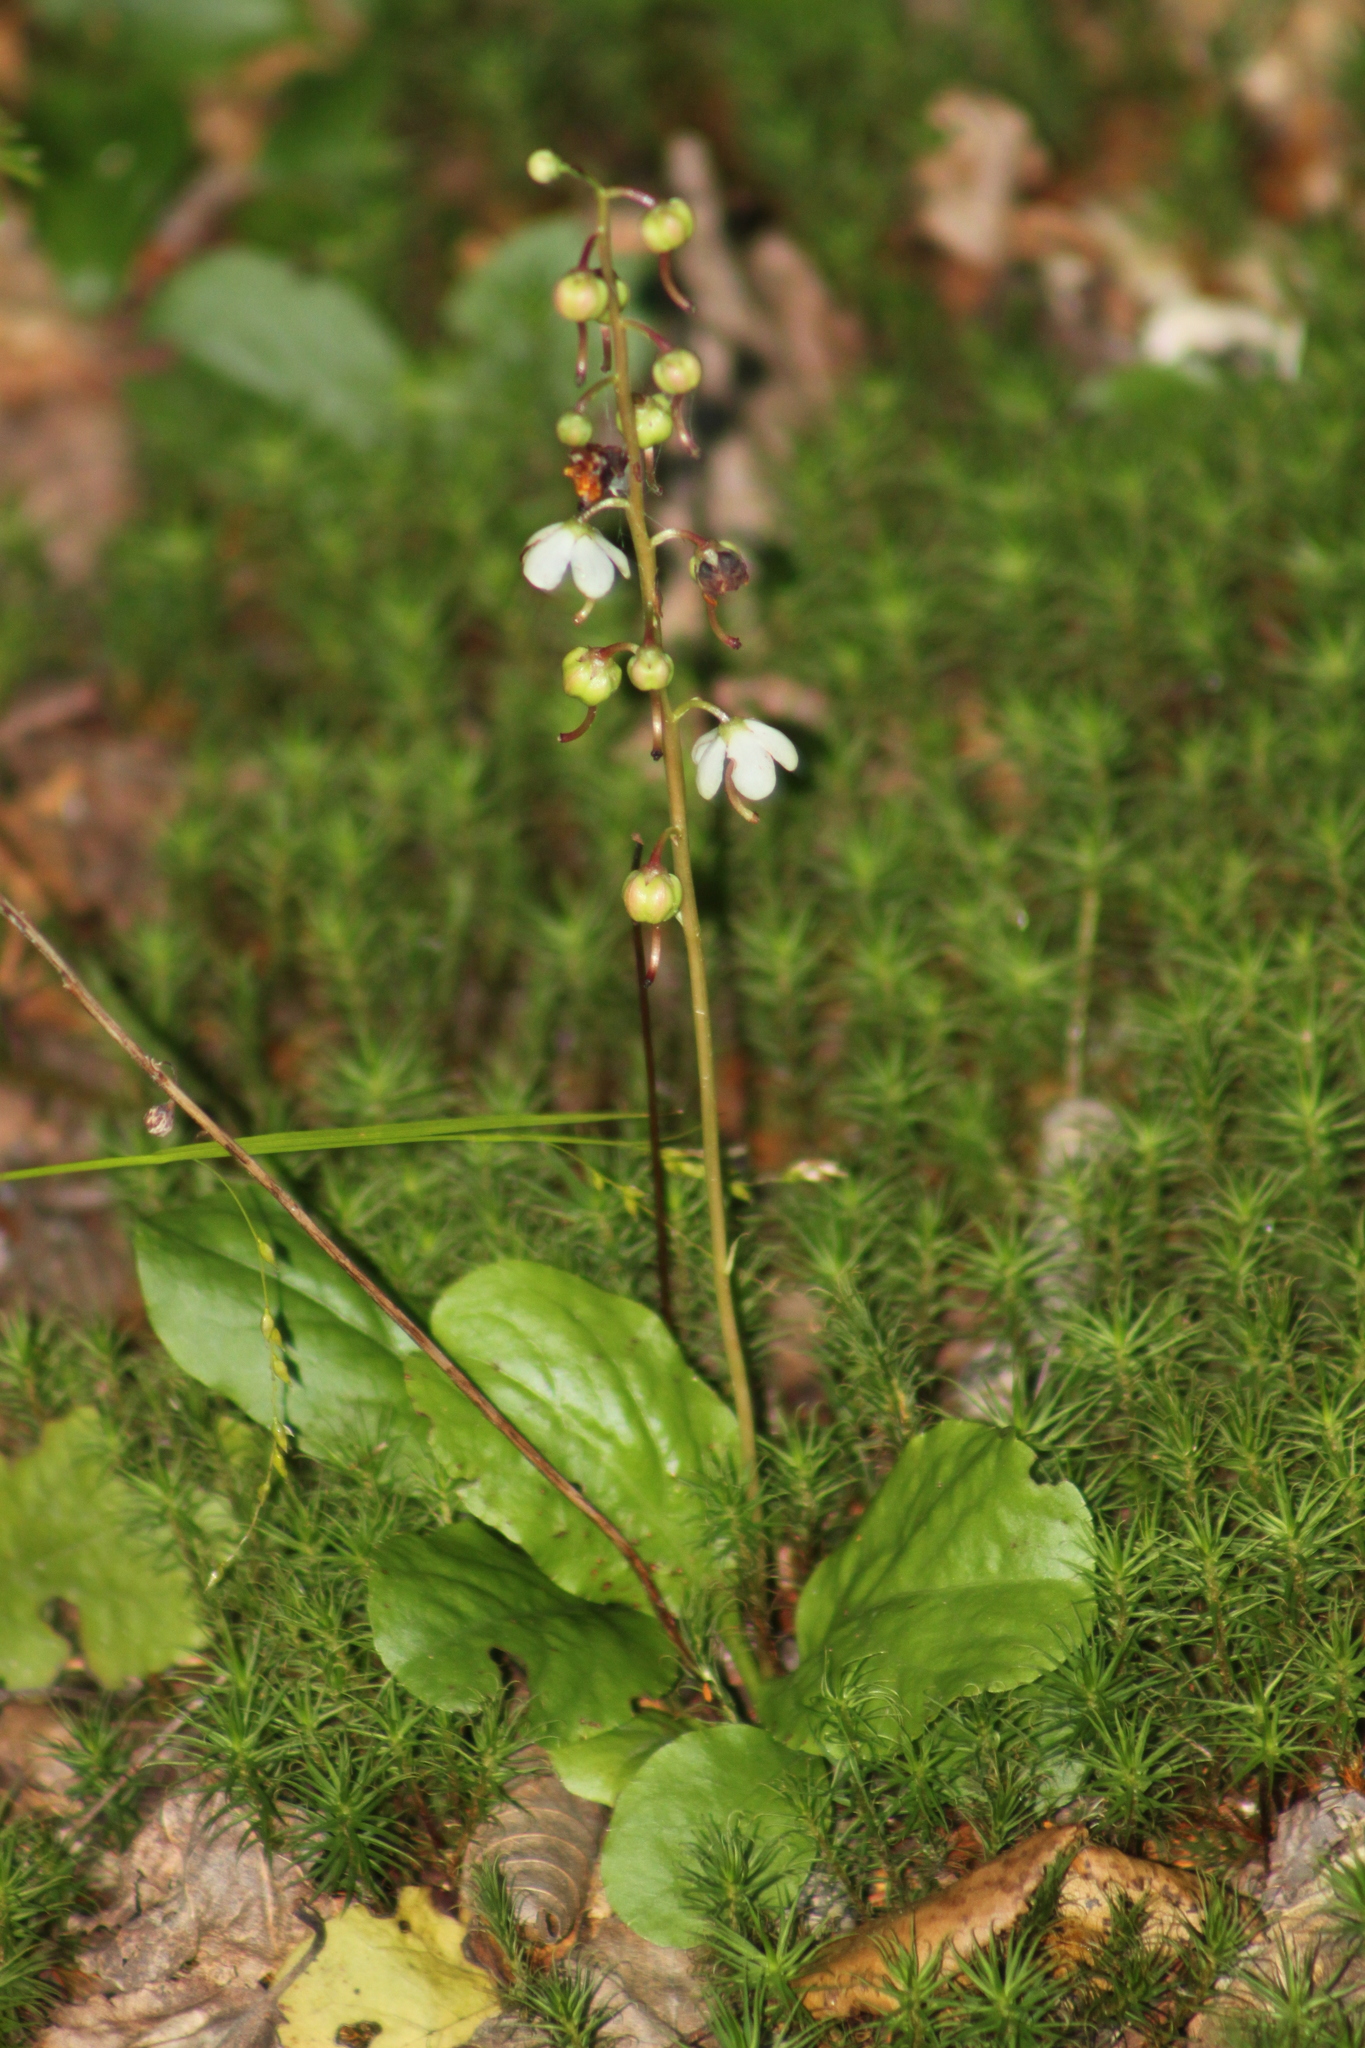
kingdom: Plantae
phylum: Tracheophyta
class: Magnoliopsida
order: Ericales
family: Ericaceae
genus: Pyrola
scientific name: Pyrola elliptica
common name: Shinleaf
